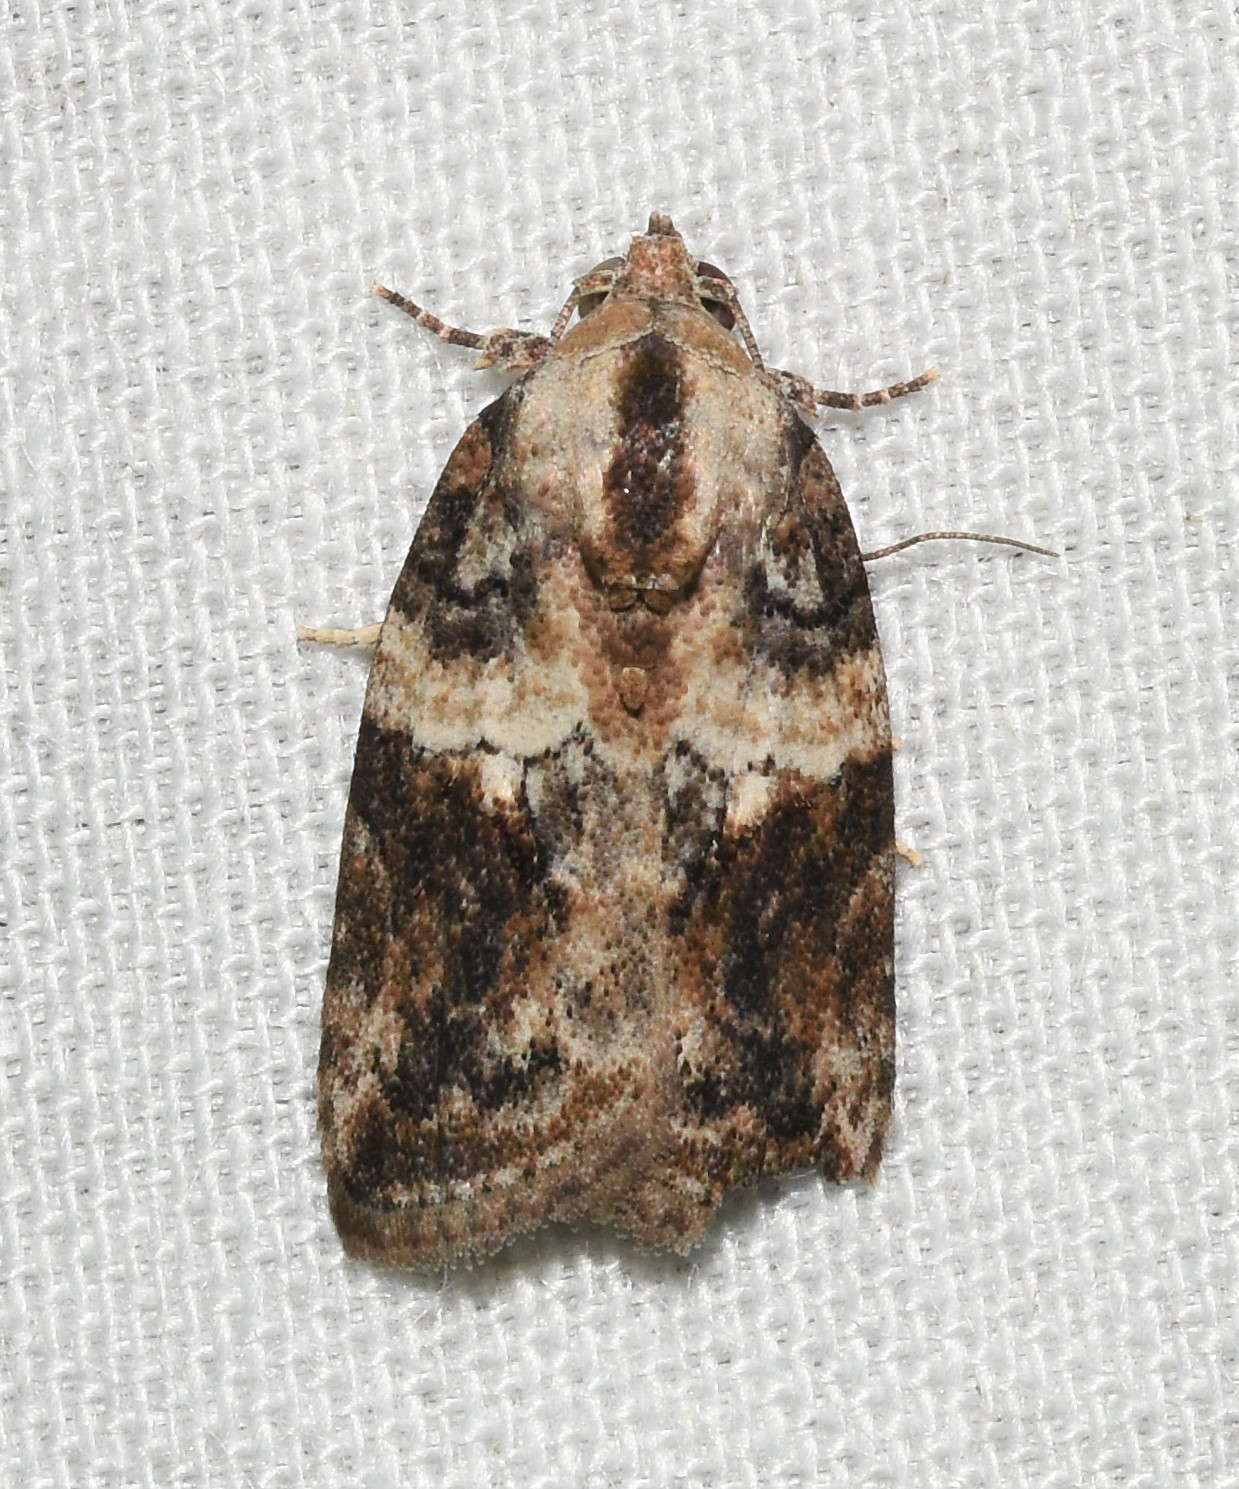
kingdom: Animalia
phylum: Arthropoda
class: Insecta
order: Lepidoptera
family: Nolidae
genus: Garella
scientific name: Garella nilotica
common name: Black-olive caterpillar moth
